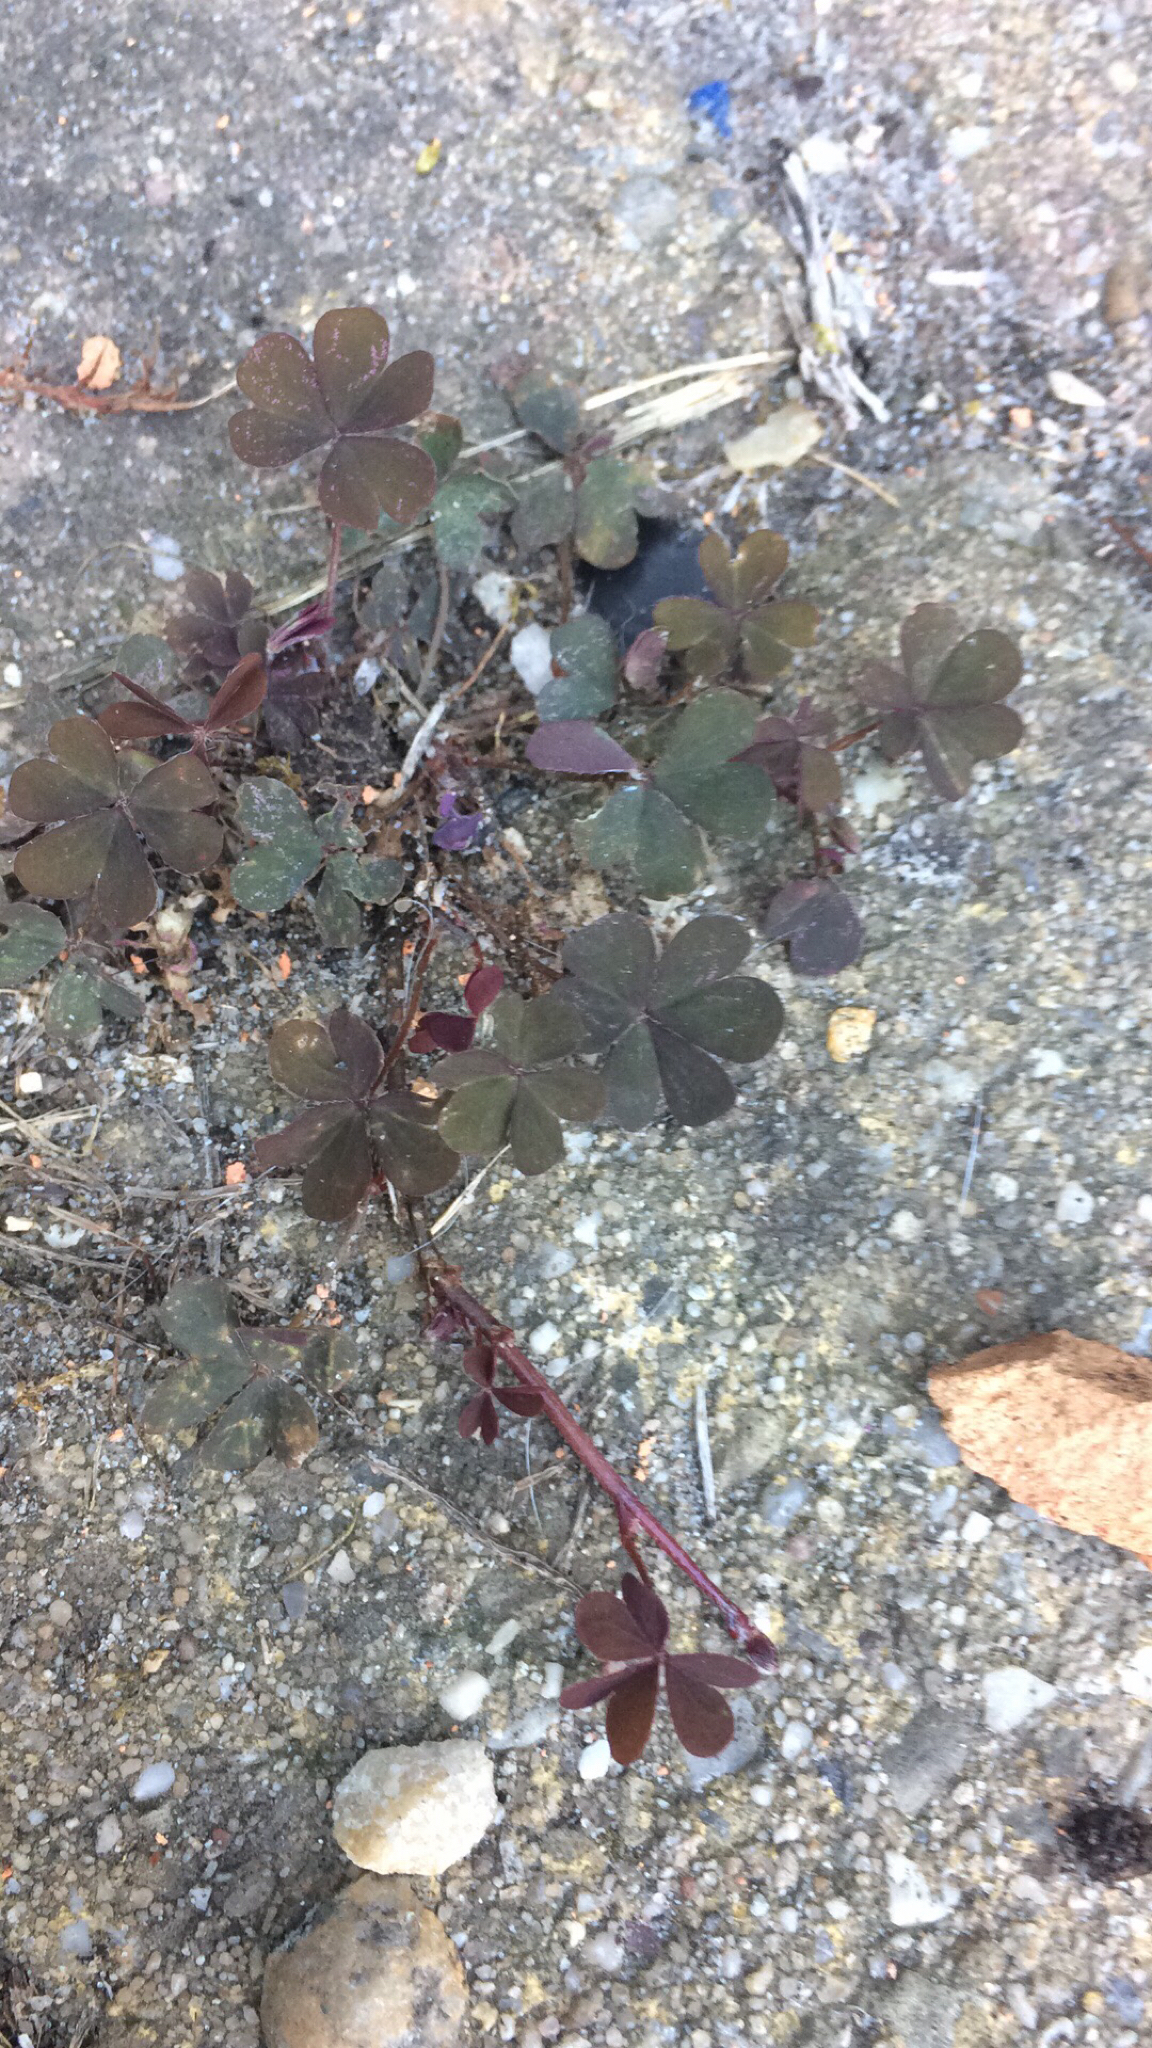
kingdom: Plantae
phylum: Tracheophyta
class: Magnoliopsida
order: Oxalidales
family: Oxalidaceae
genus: Oxalis
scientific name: Oxalis corniculata
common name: Procumbent yellow-sorrel
